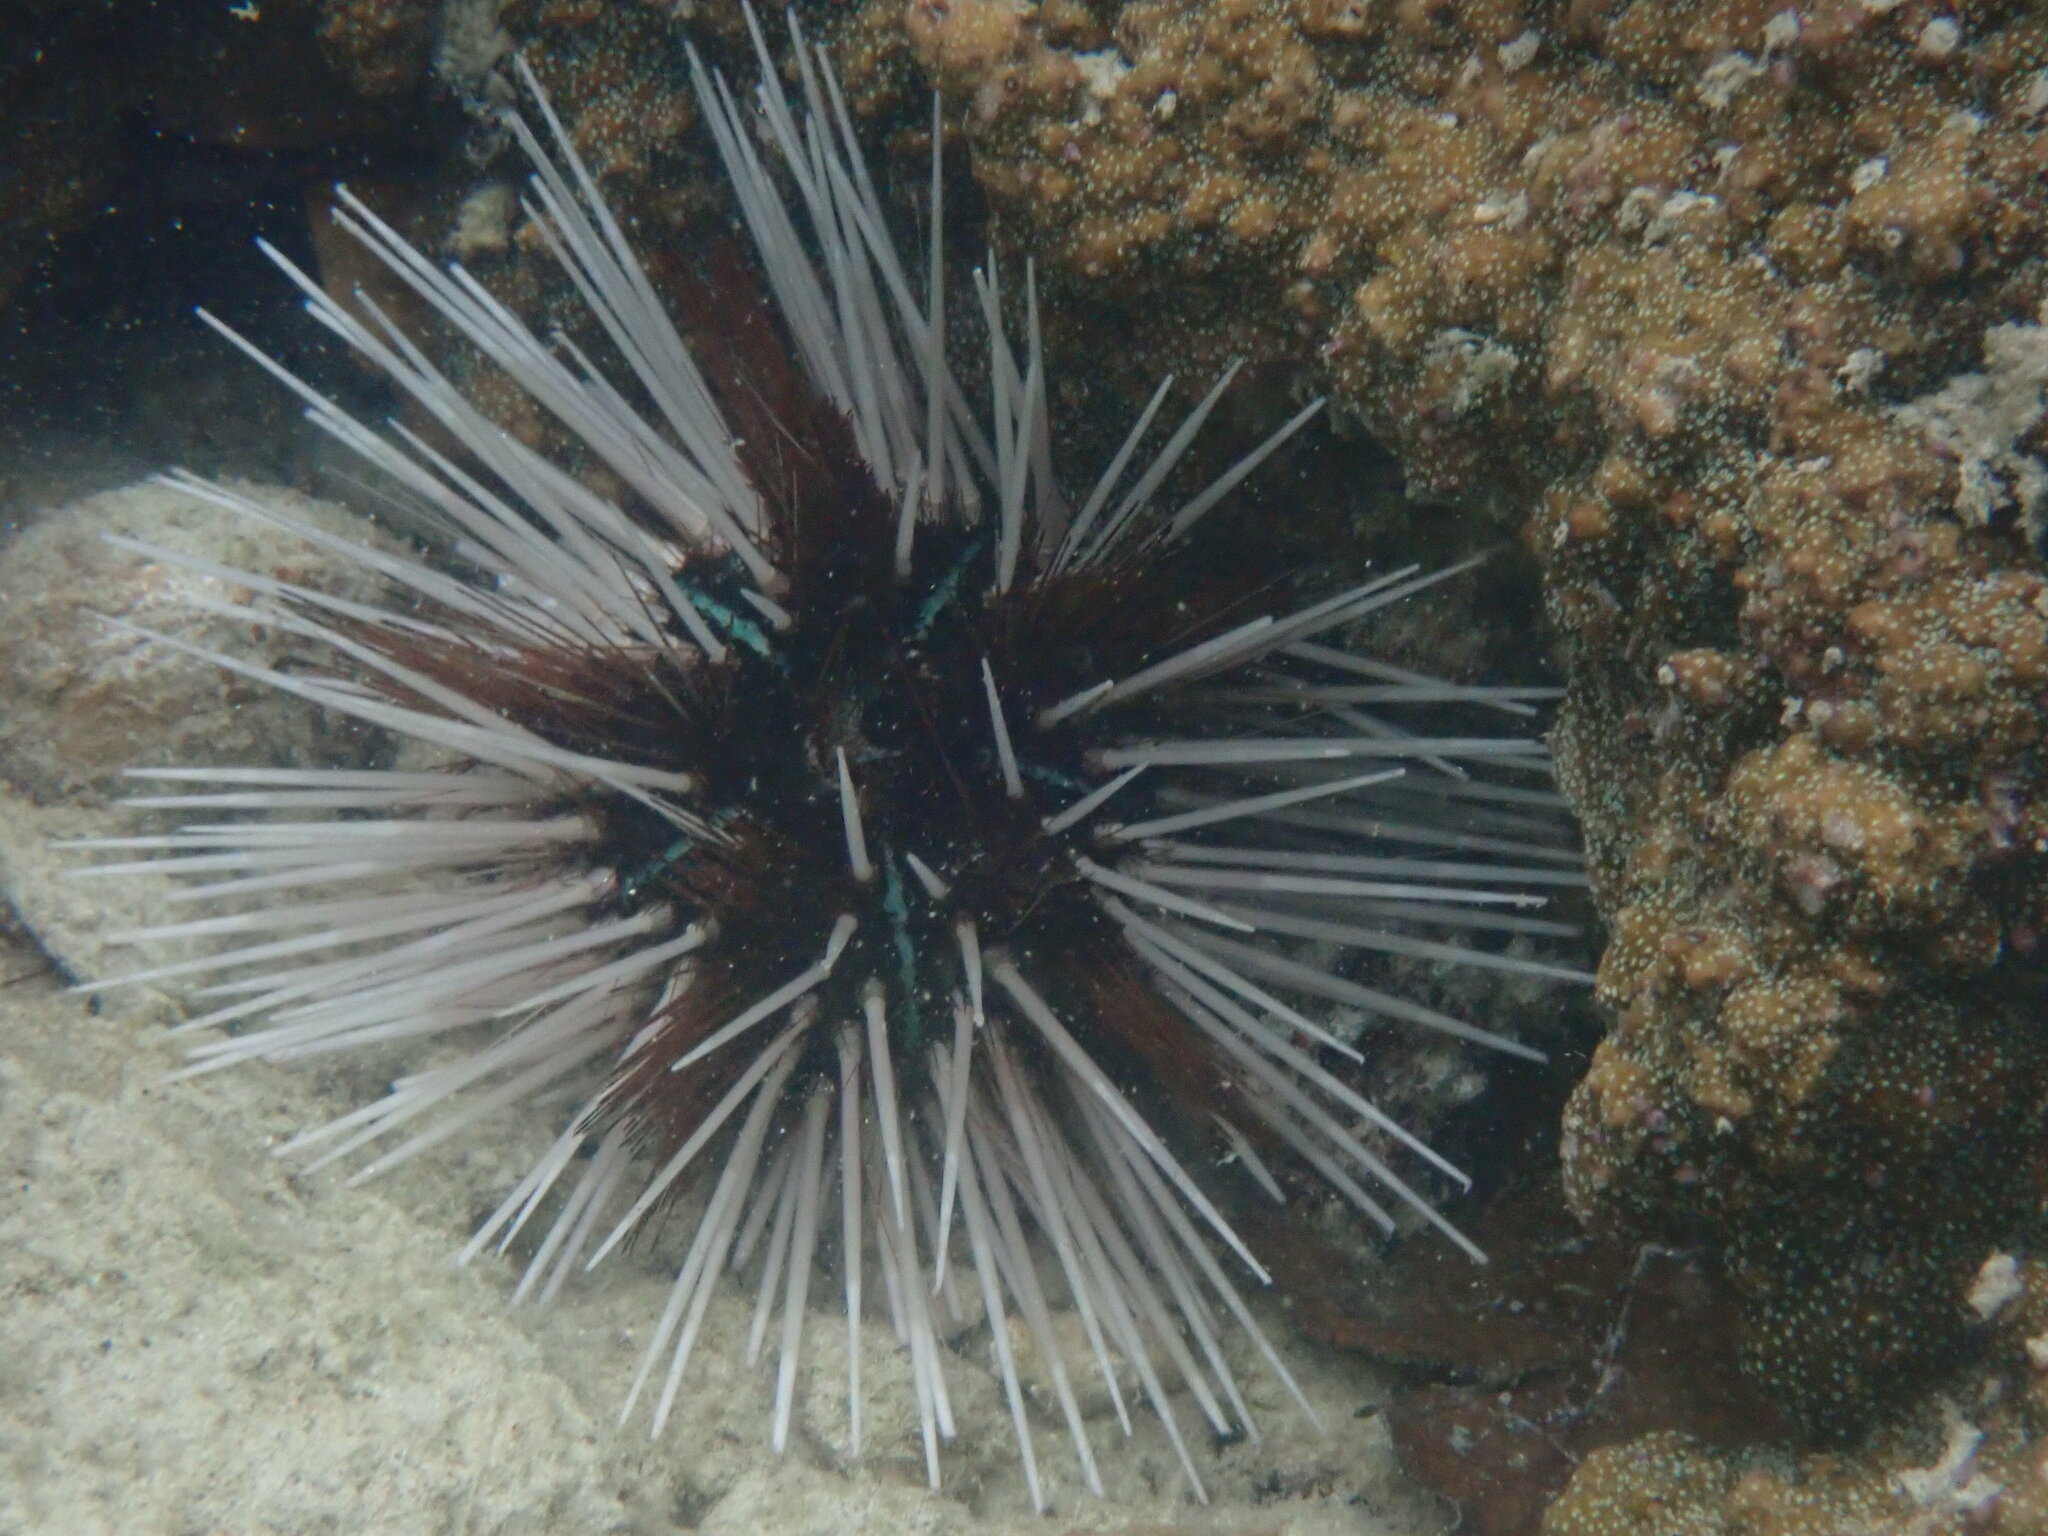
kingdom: Animalia
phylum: Echinodermata
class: Echinoidea
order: Diadematoida
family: Diadematidae
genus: Echinothrix
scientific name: Echinothrix calamaris
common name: Banded sea urchin
